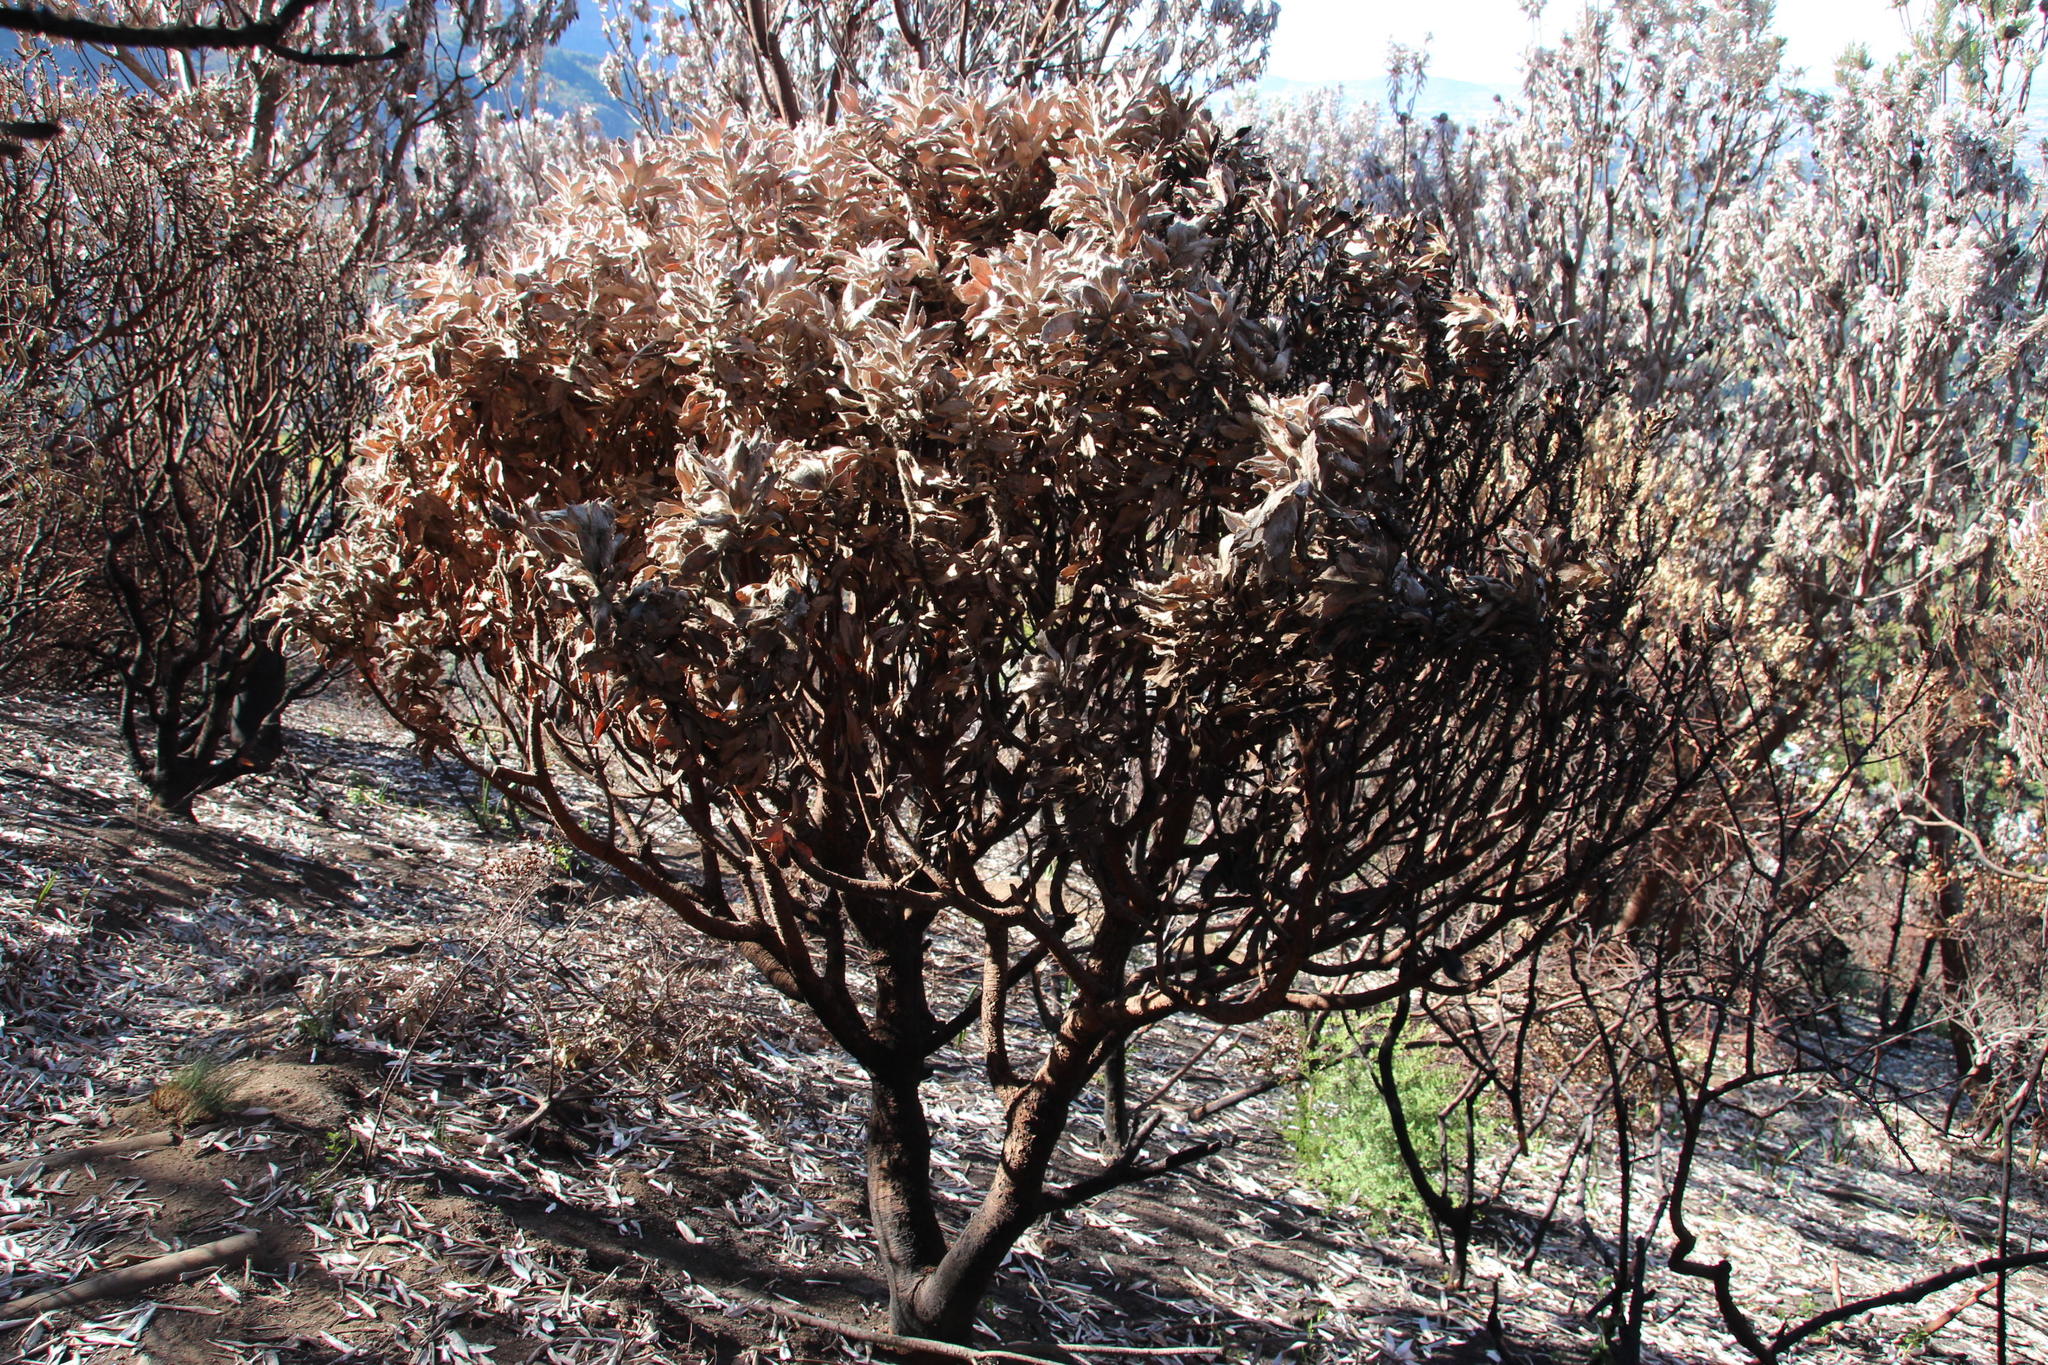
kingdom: Plantae
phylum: Tracheophyta
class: Magnoliopsida
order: Proteales
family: Proteaceae
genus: Leucospermum
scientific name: Leucospermum conocarpodendron
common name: Tree pincushion
